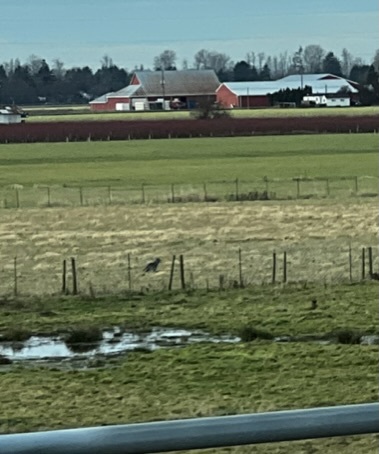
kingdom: Animalia
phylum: Chordata
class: Mammalia
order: Carnivora
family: Canidae
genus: Canis
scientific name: Canis latrans
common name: Coyote
